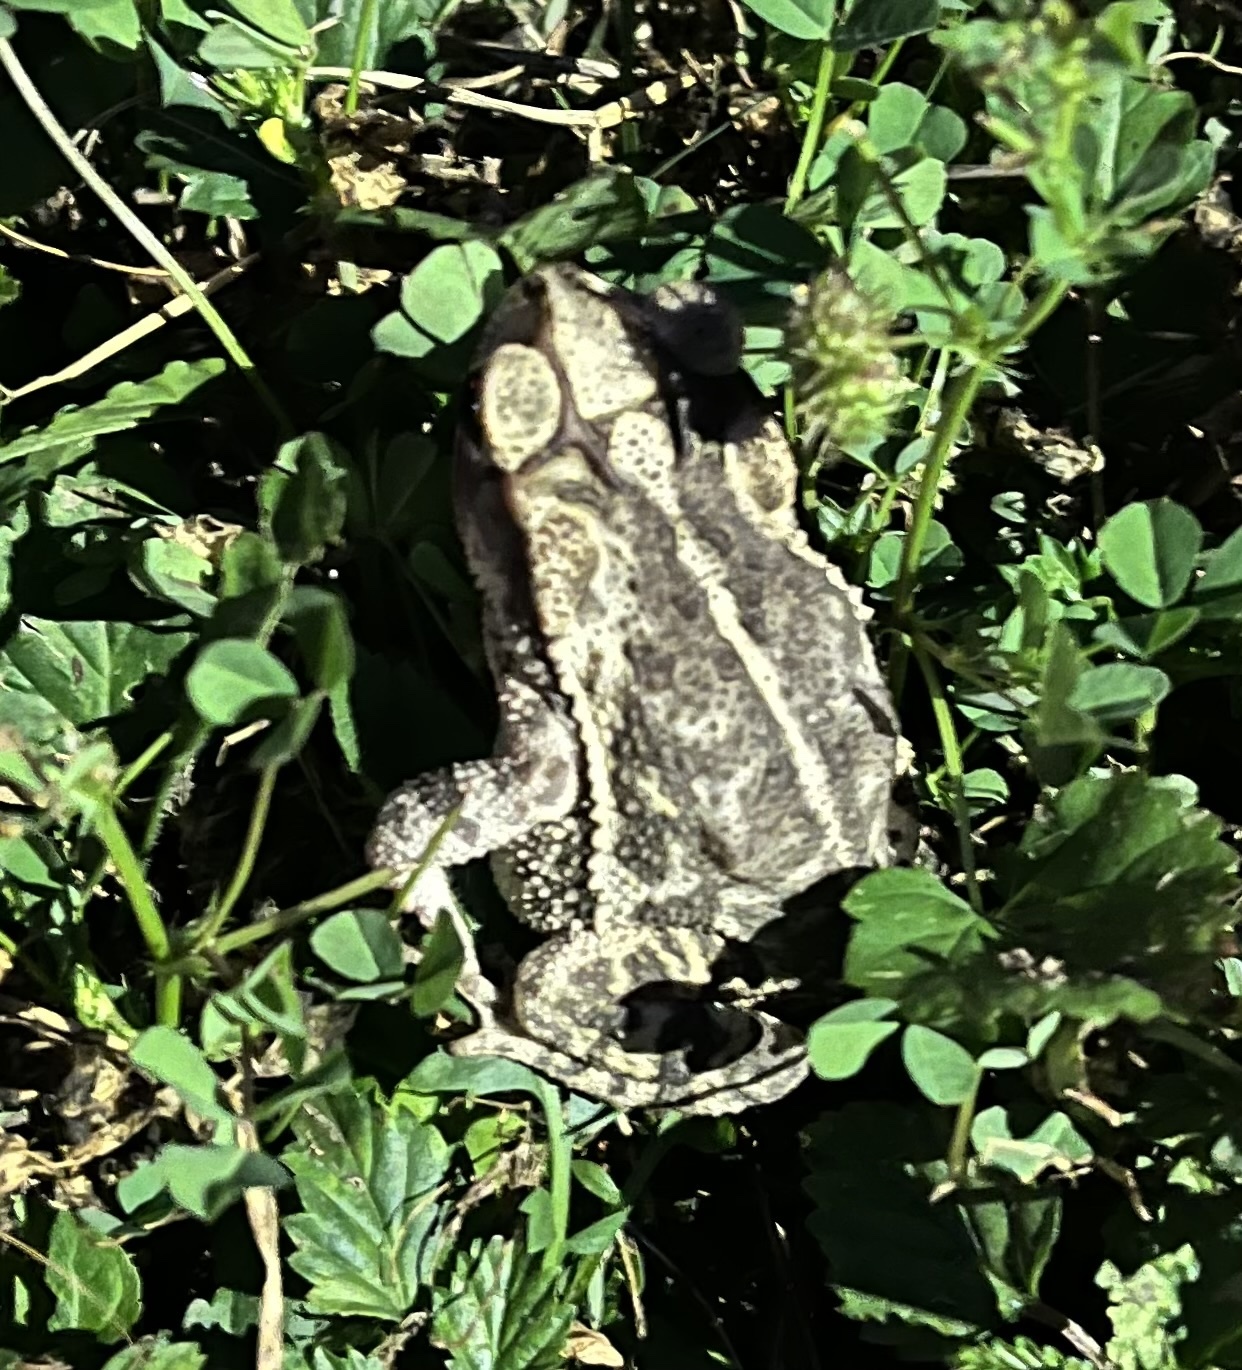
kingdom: Animalia
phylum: Chordata
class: Amphibia
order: Anura
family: Bufonidae
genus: Incilius
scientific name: Incilius nebulifer
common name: Gulf coast toad
